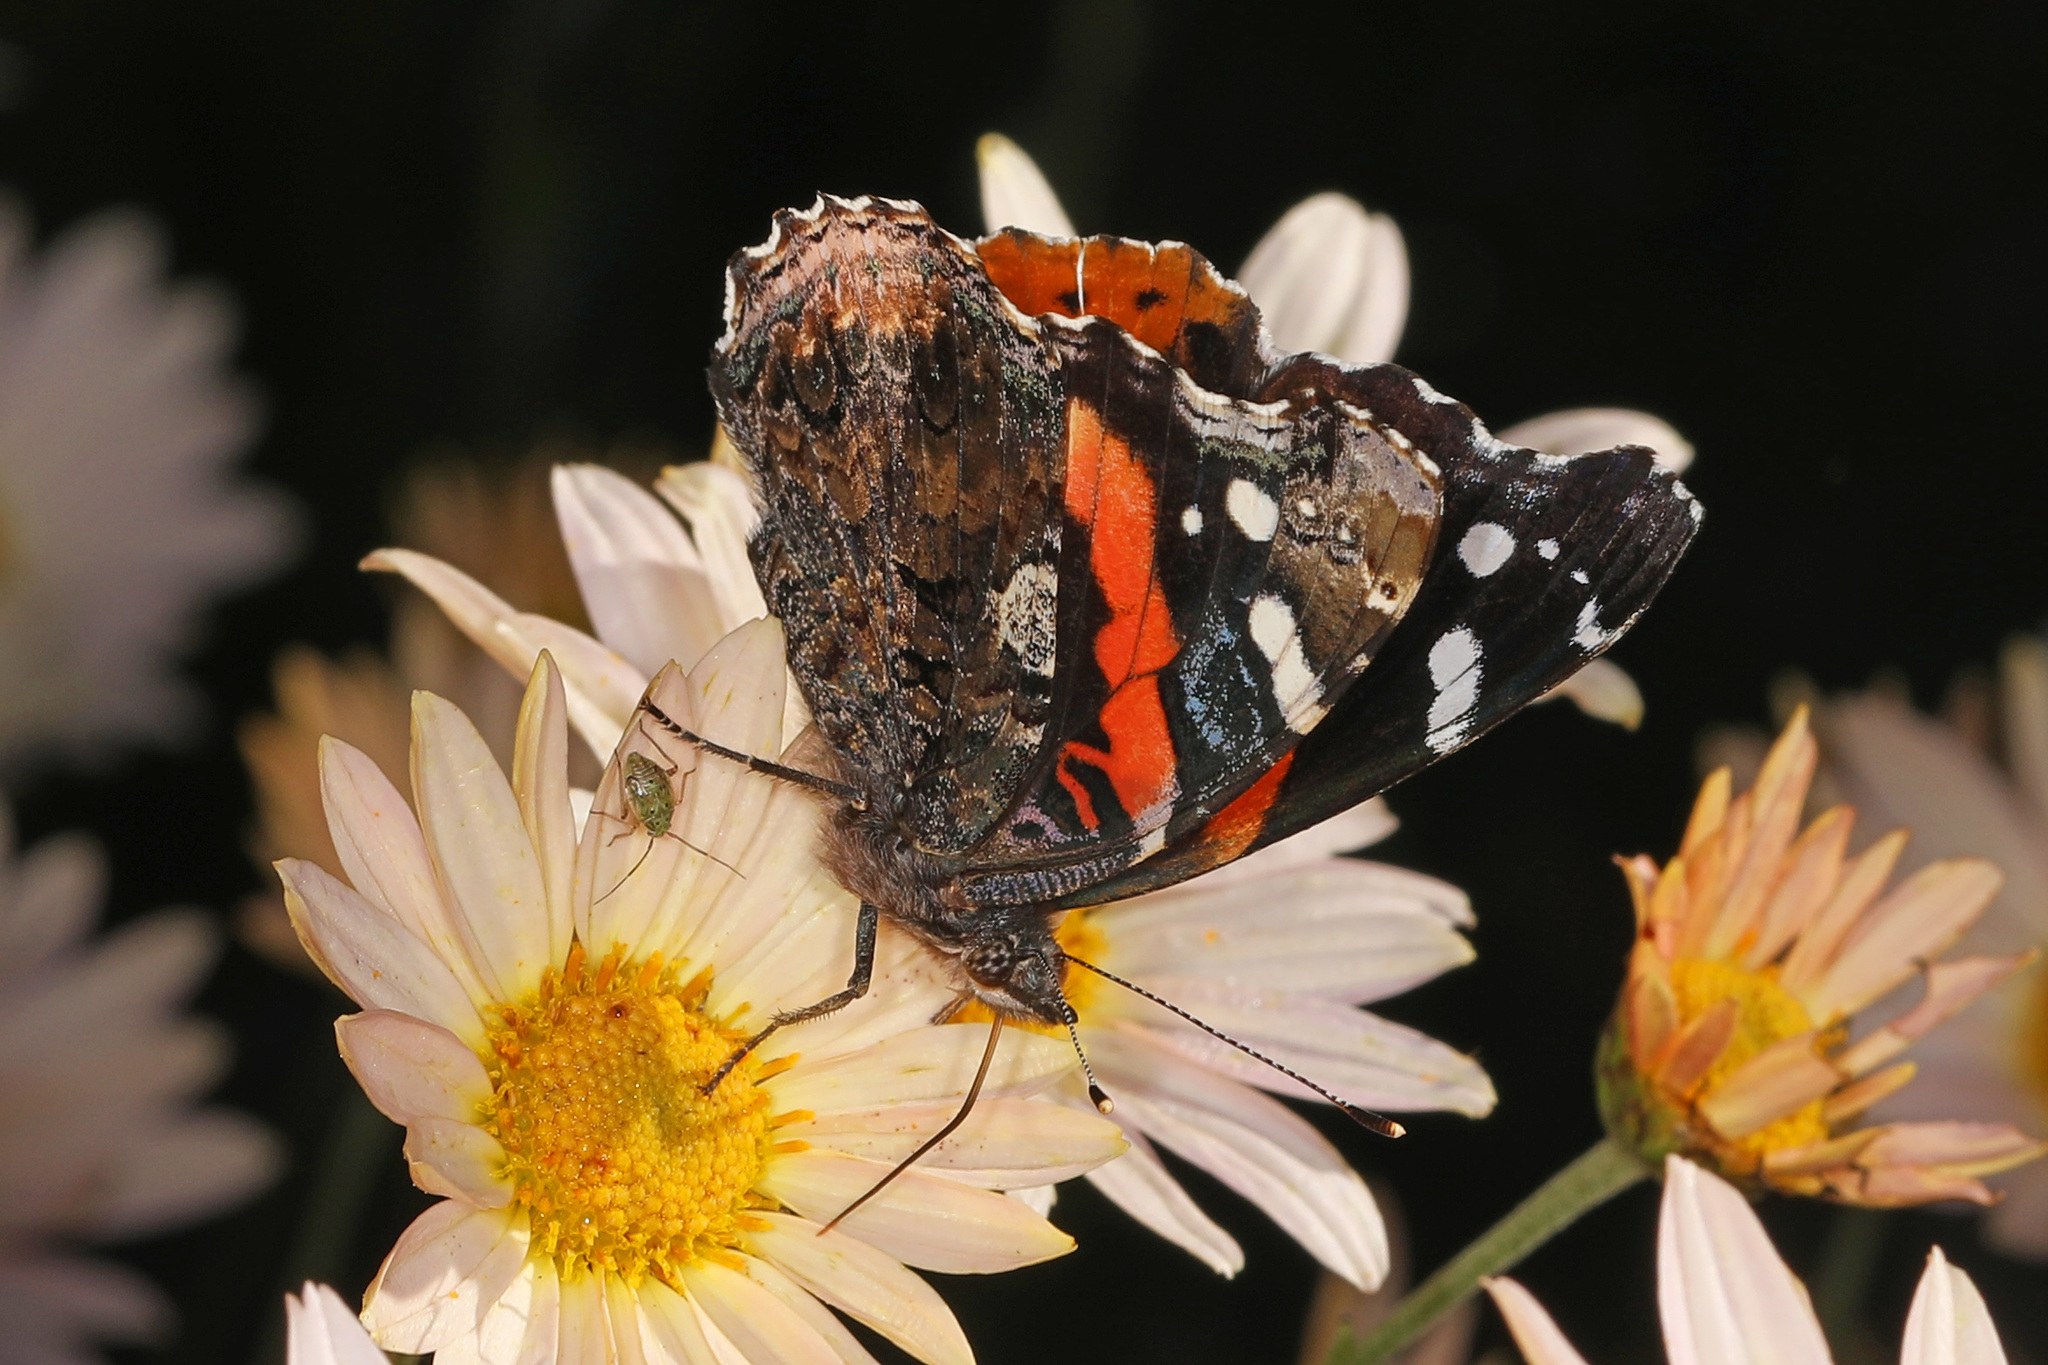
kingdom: Animalia
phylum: Arthropoda
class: Insecta
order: Lepidoptera
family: Nymphalidae
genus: Vanessa
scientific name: Vanessa atalanta
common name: Red admiral
